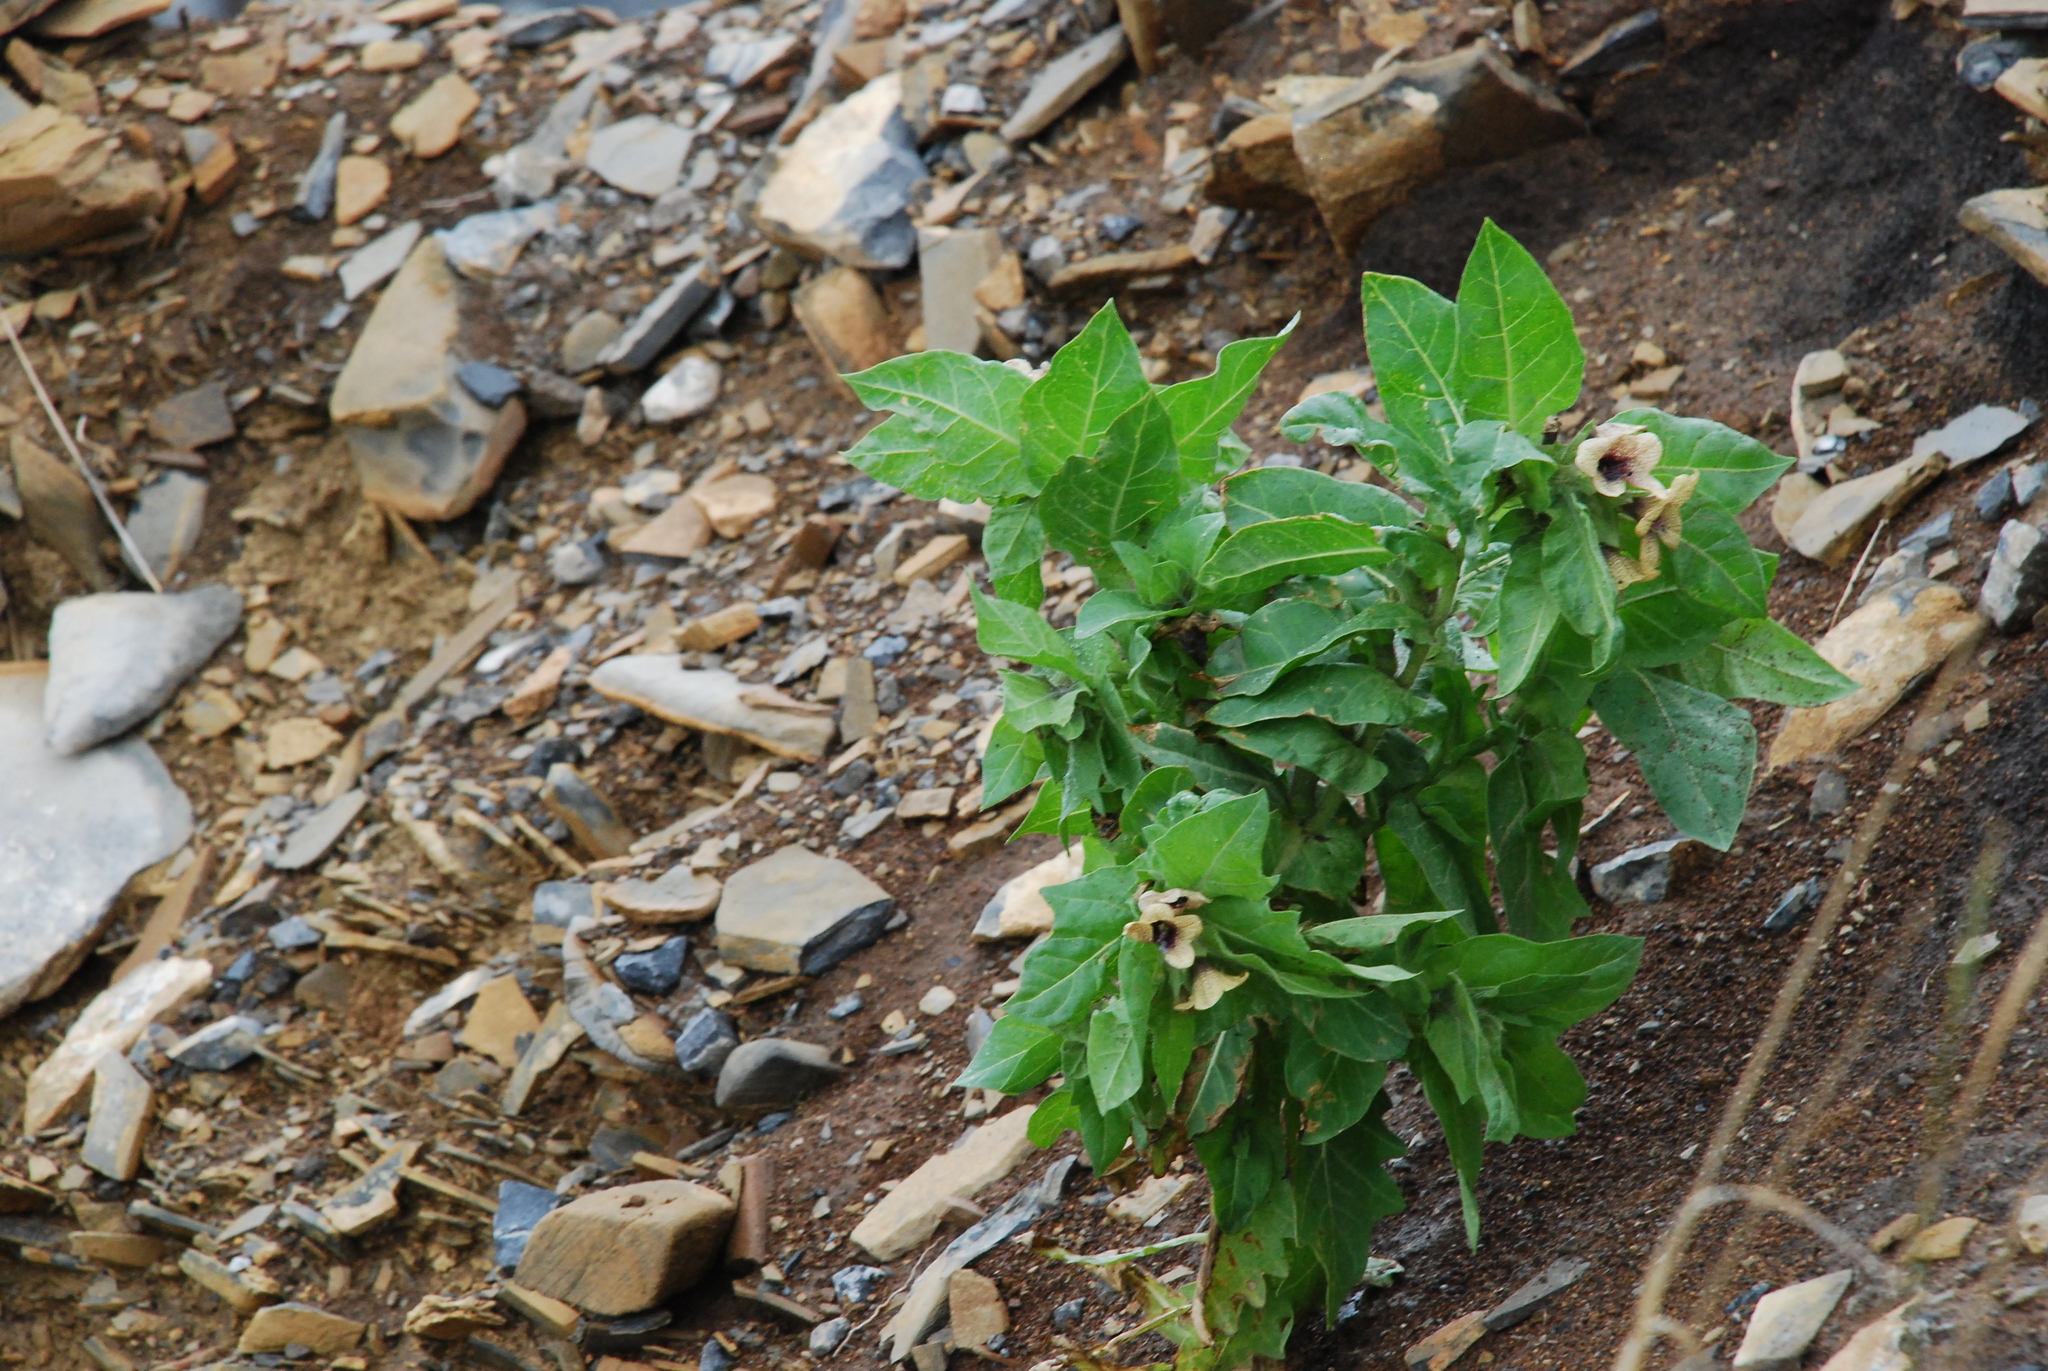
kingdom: Plantae
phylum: Tracheophyta
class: Magnoliopsida
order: Solanales
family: Solanaceae
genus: Hyoscyamus
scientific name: Hyoscyamus niger
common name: Henbane
